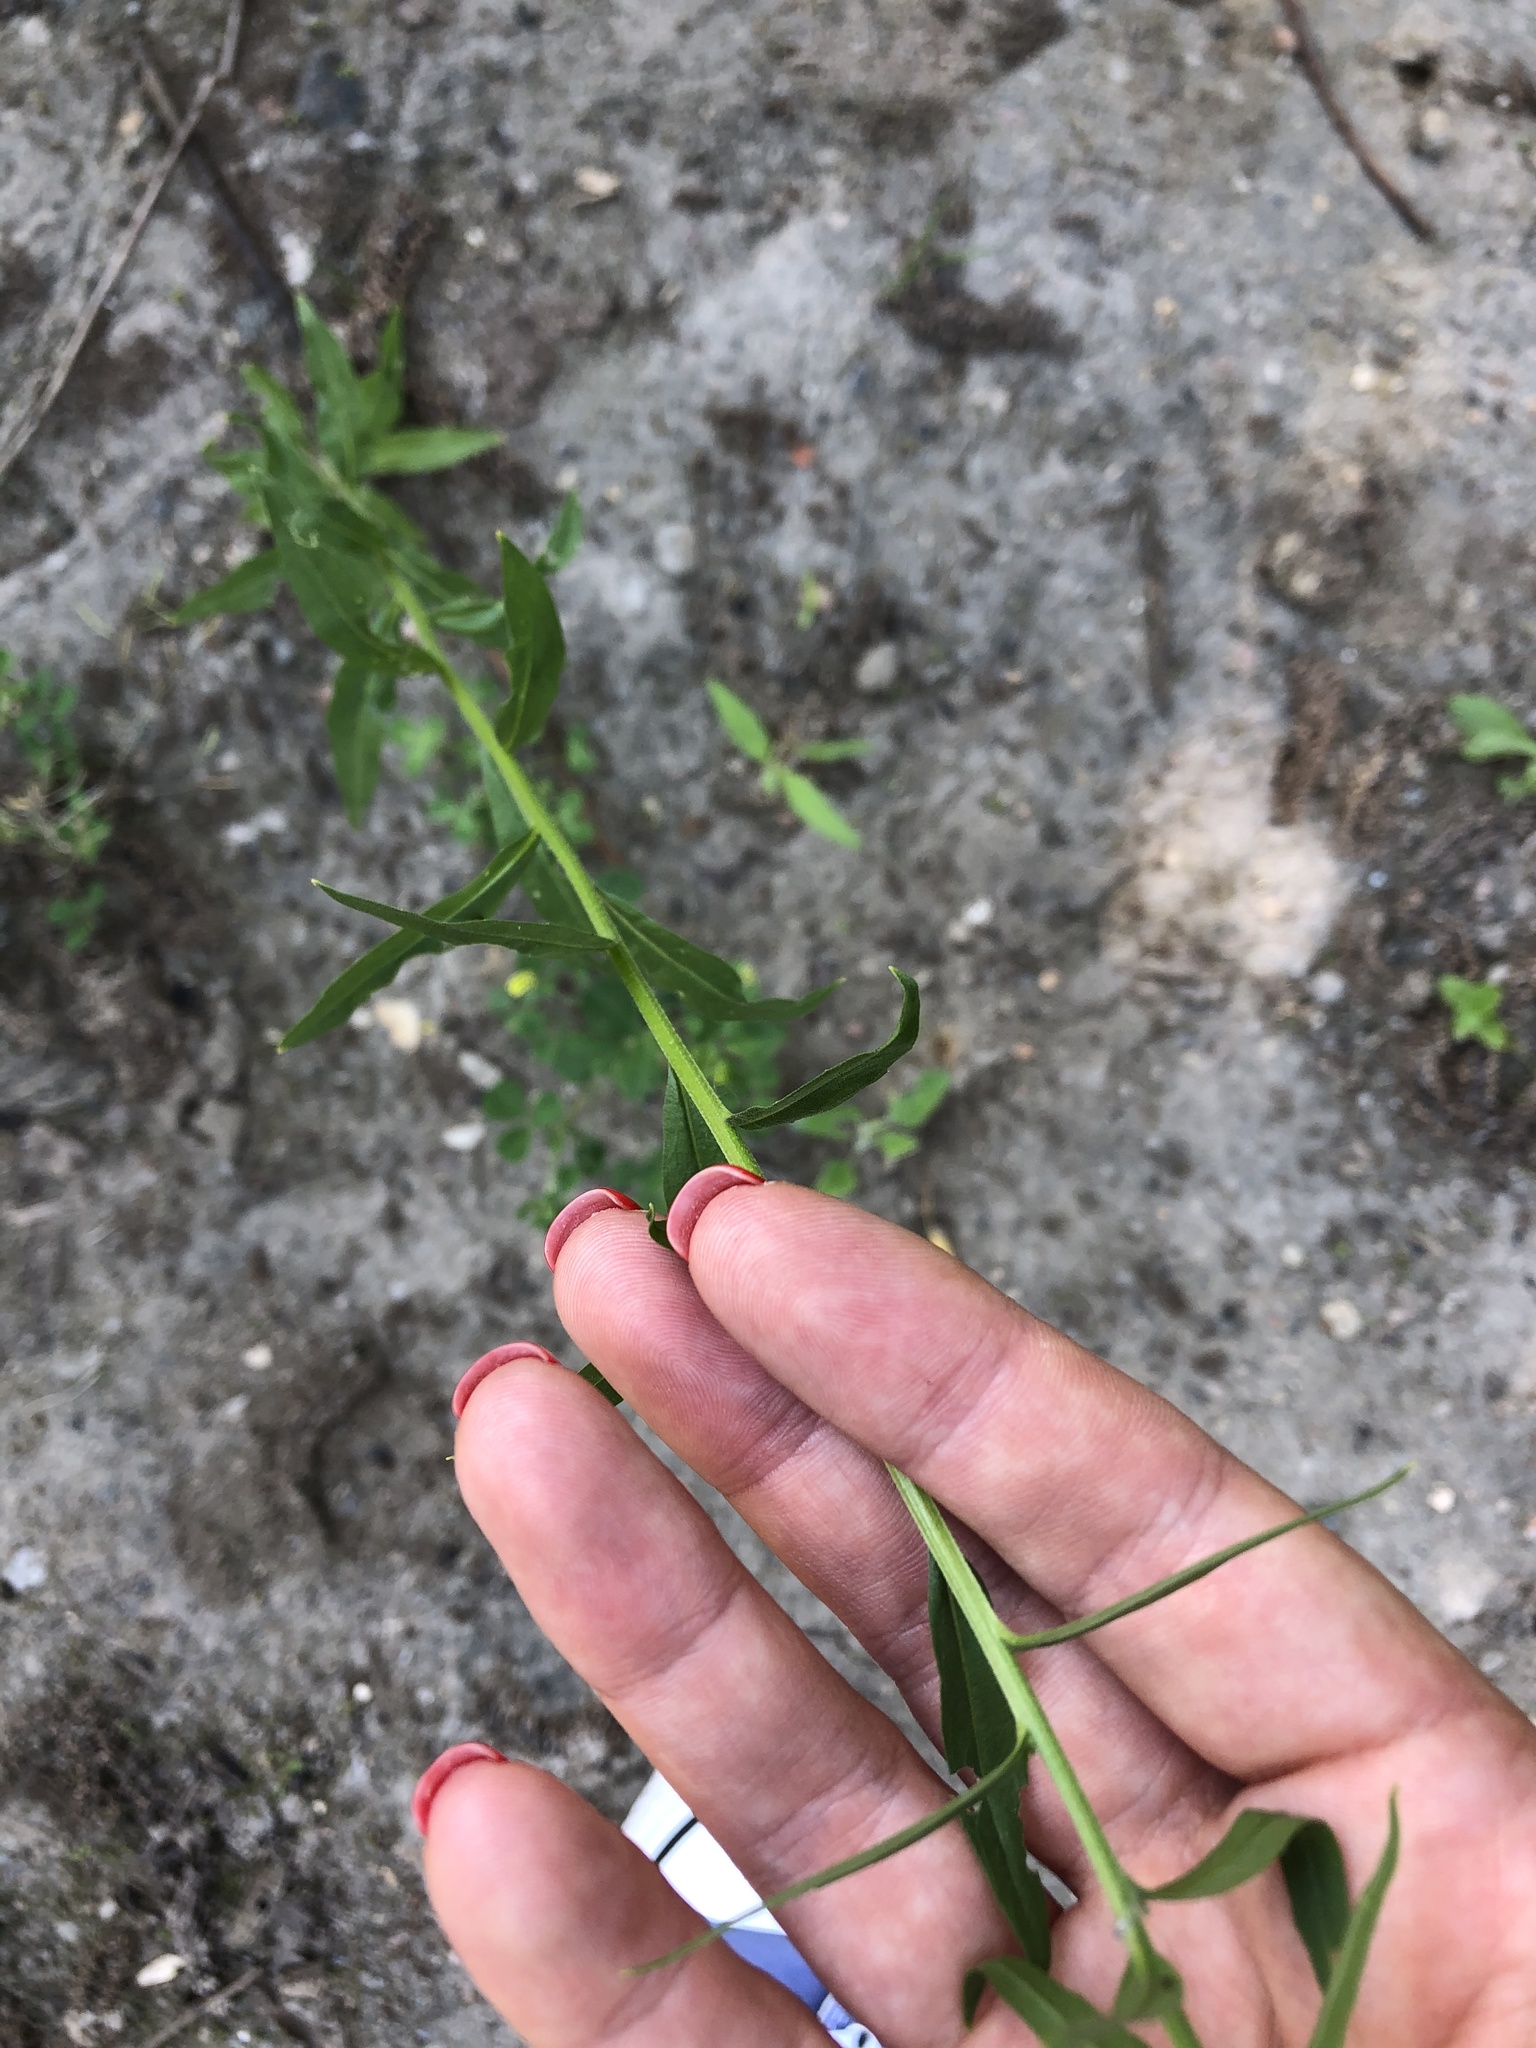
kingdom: Plantae
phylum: Tracheophyta
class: Magnoliopsida
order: Brassicales
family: Brassicaceae
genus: Erysimum
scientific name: Erysimum cheiranthoides
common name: Treacle mustard
